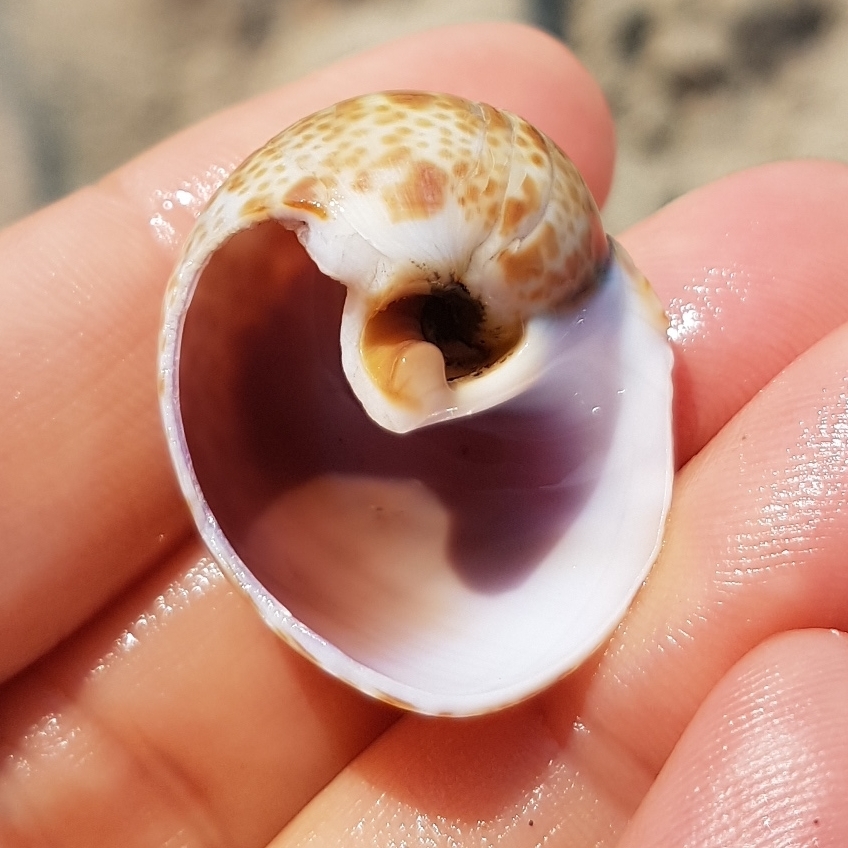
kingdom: Animalia
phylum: Mollusca
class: Gastropoda
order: Littorinimorpha
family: Naticidae
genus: Naticarius
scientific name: Naticarius hebraeus
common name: Hebrew moon shell
